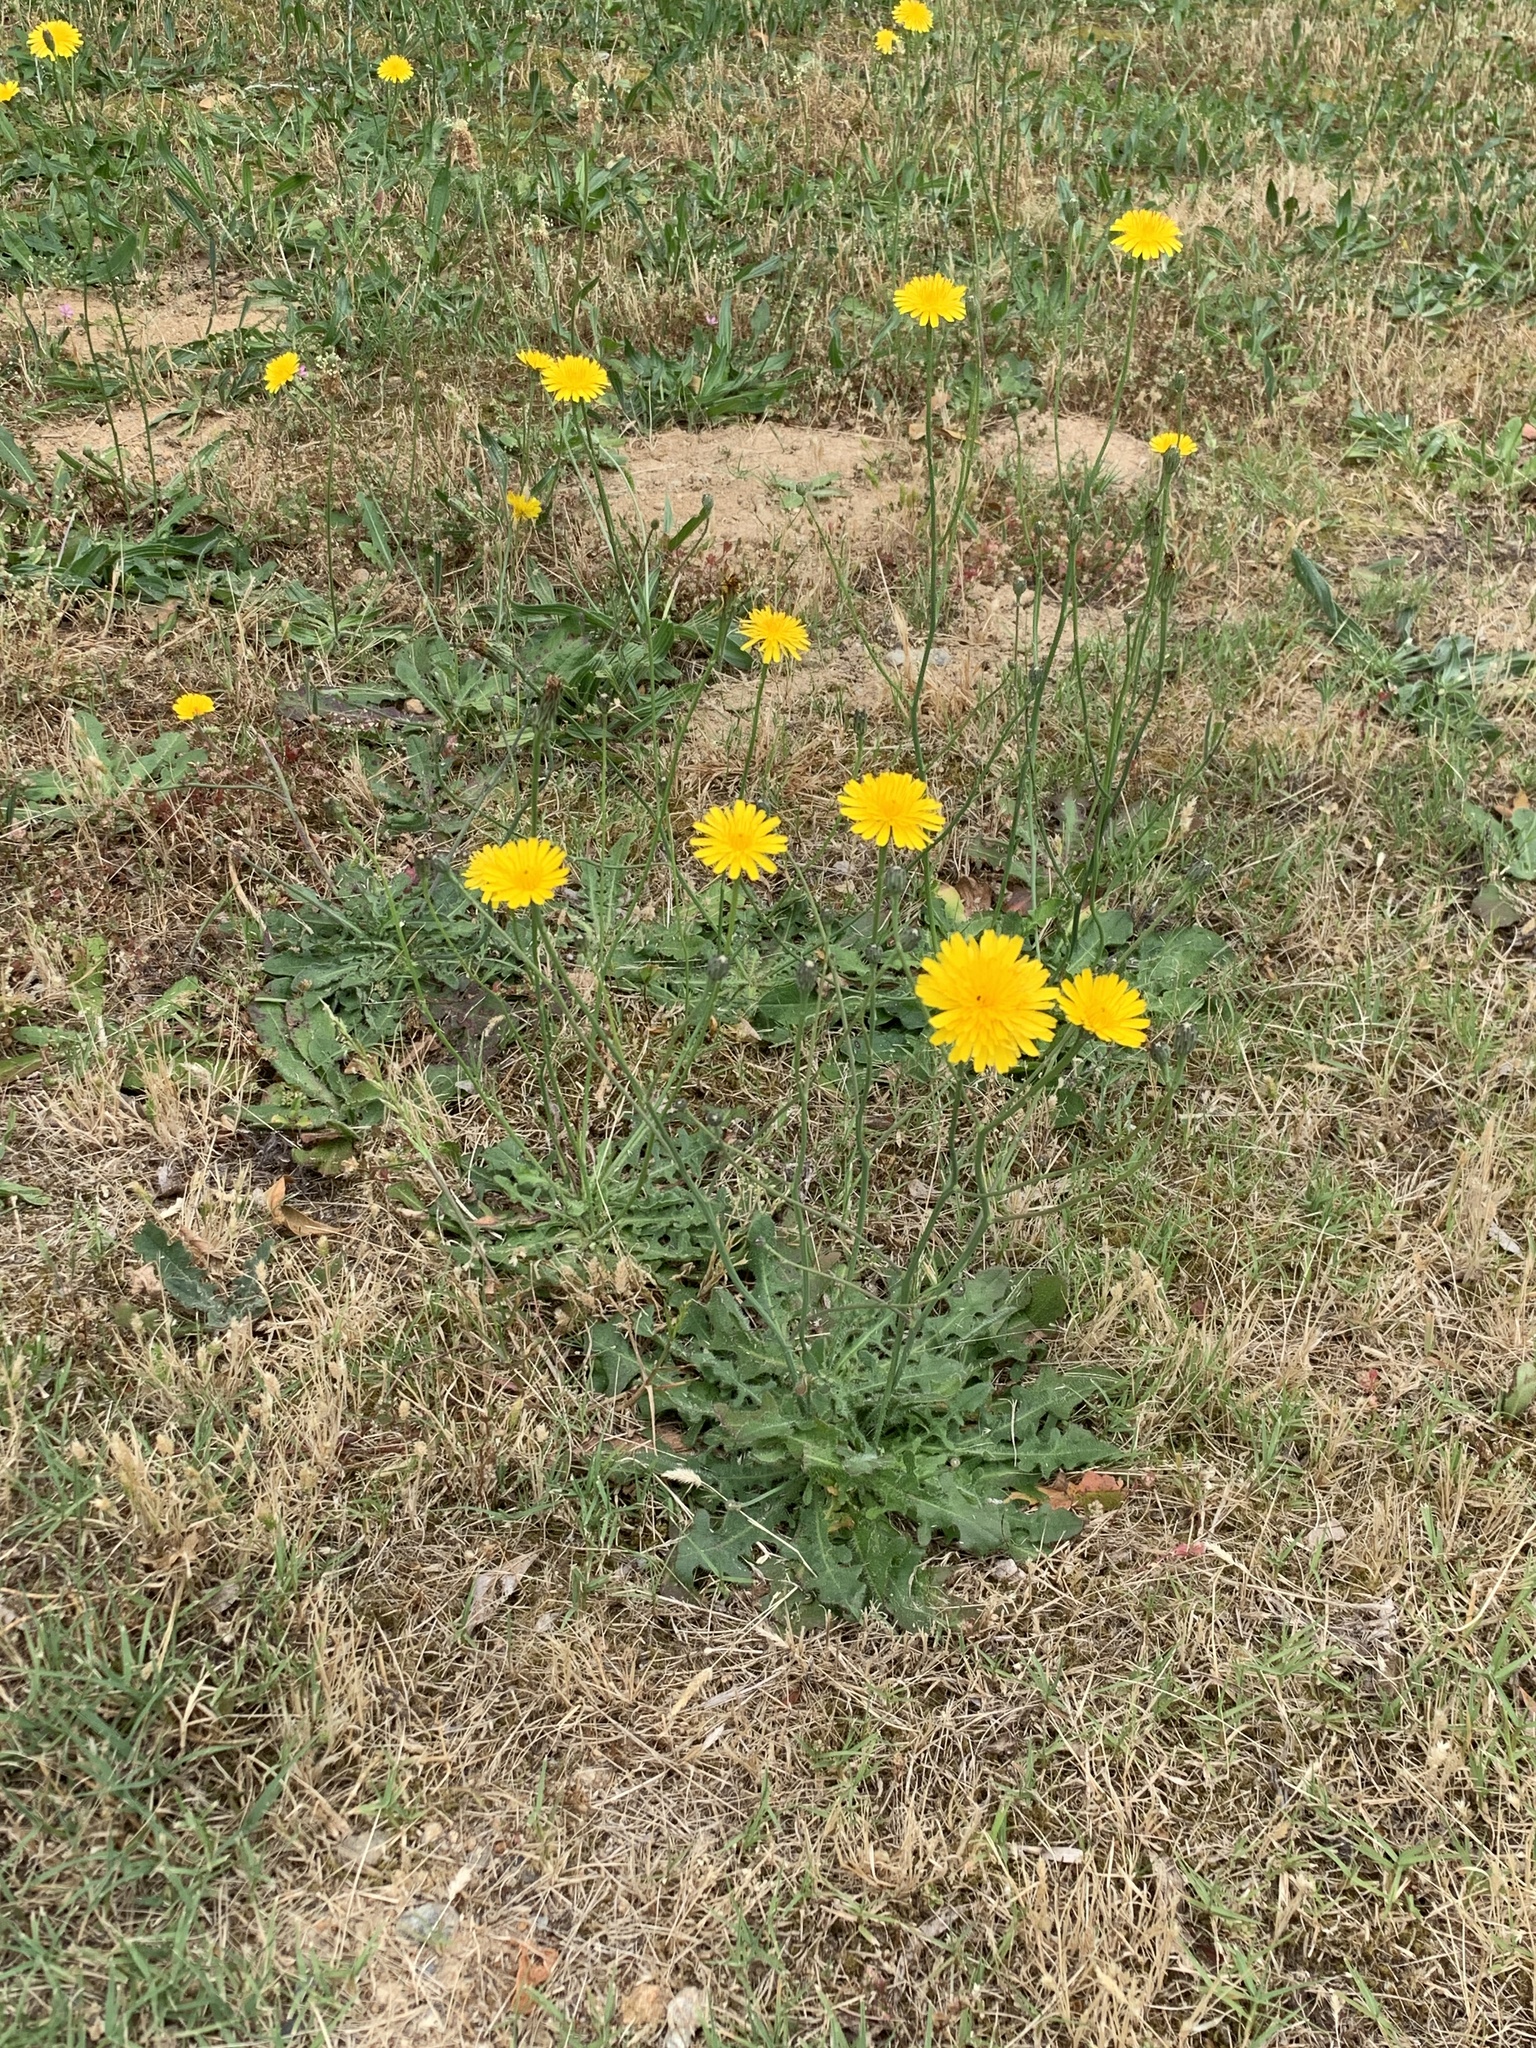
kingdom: Plantae
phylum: Tracheophyta
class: Magnoliopsida
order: Asterales
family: Asteraceae
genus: Hypochaeris
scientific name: Hypochaeris radicata
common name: Flatweed
